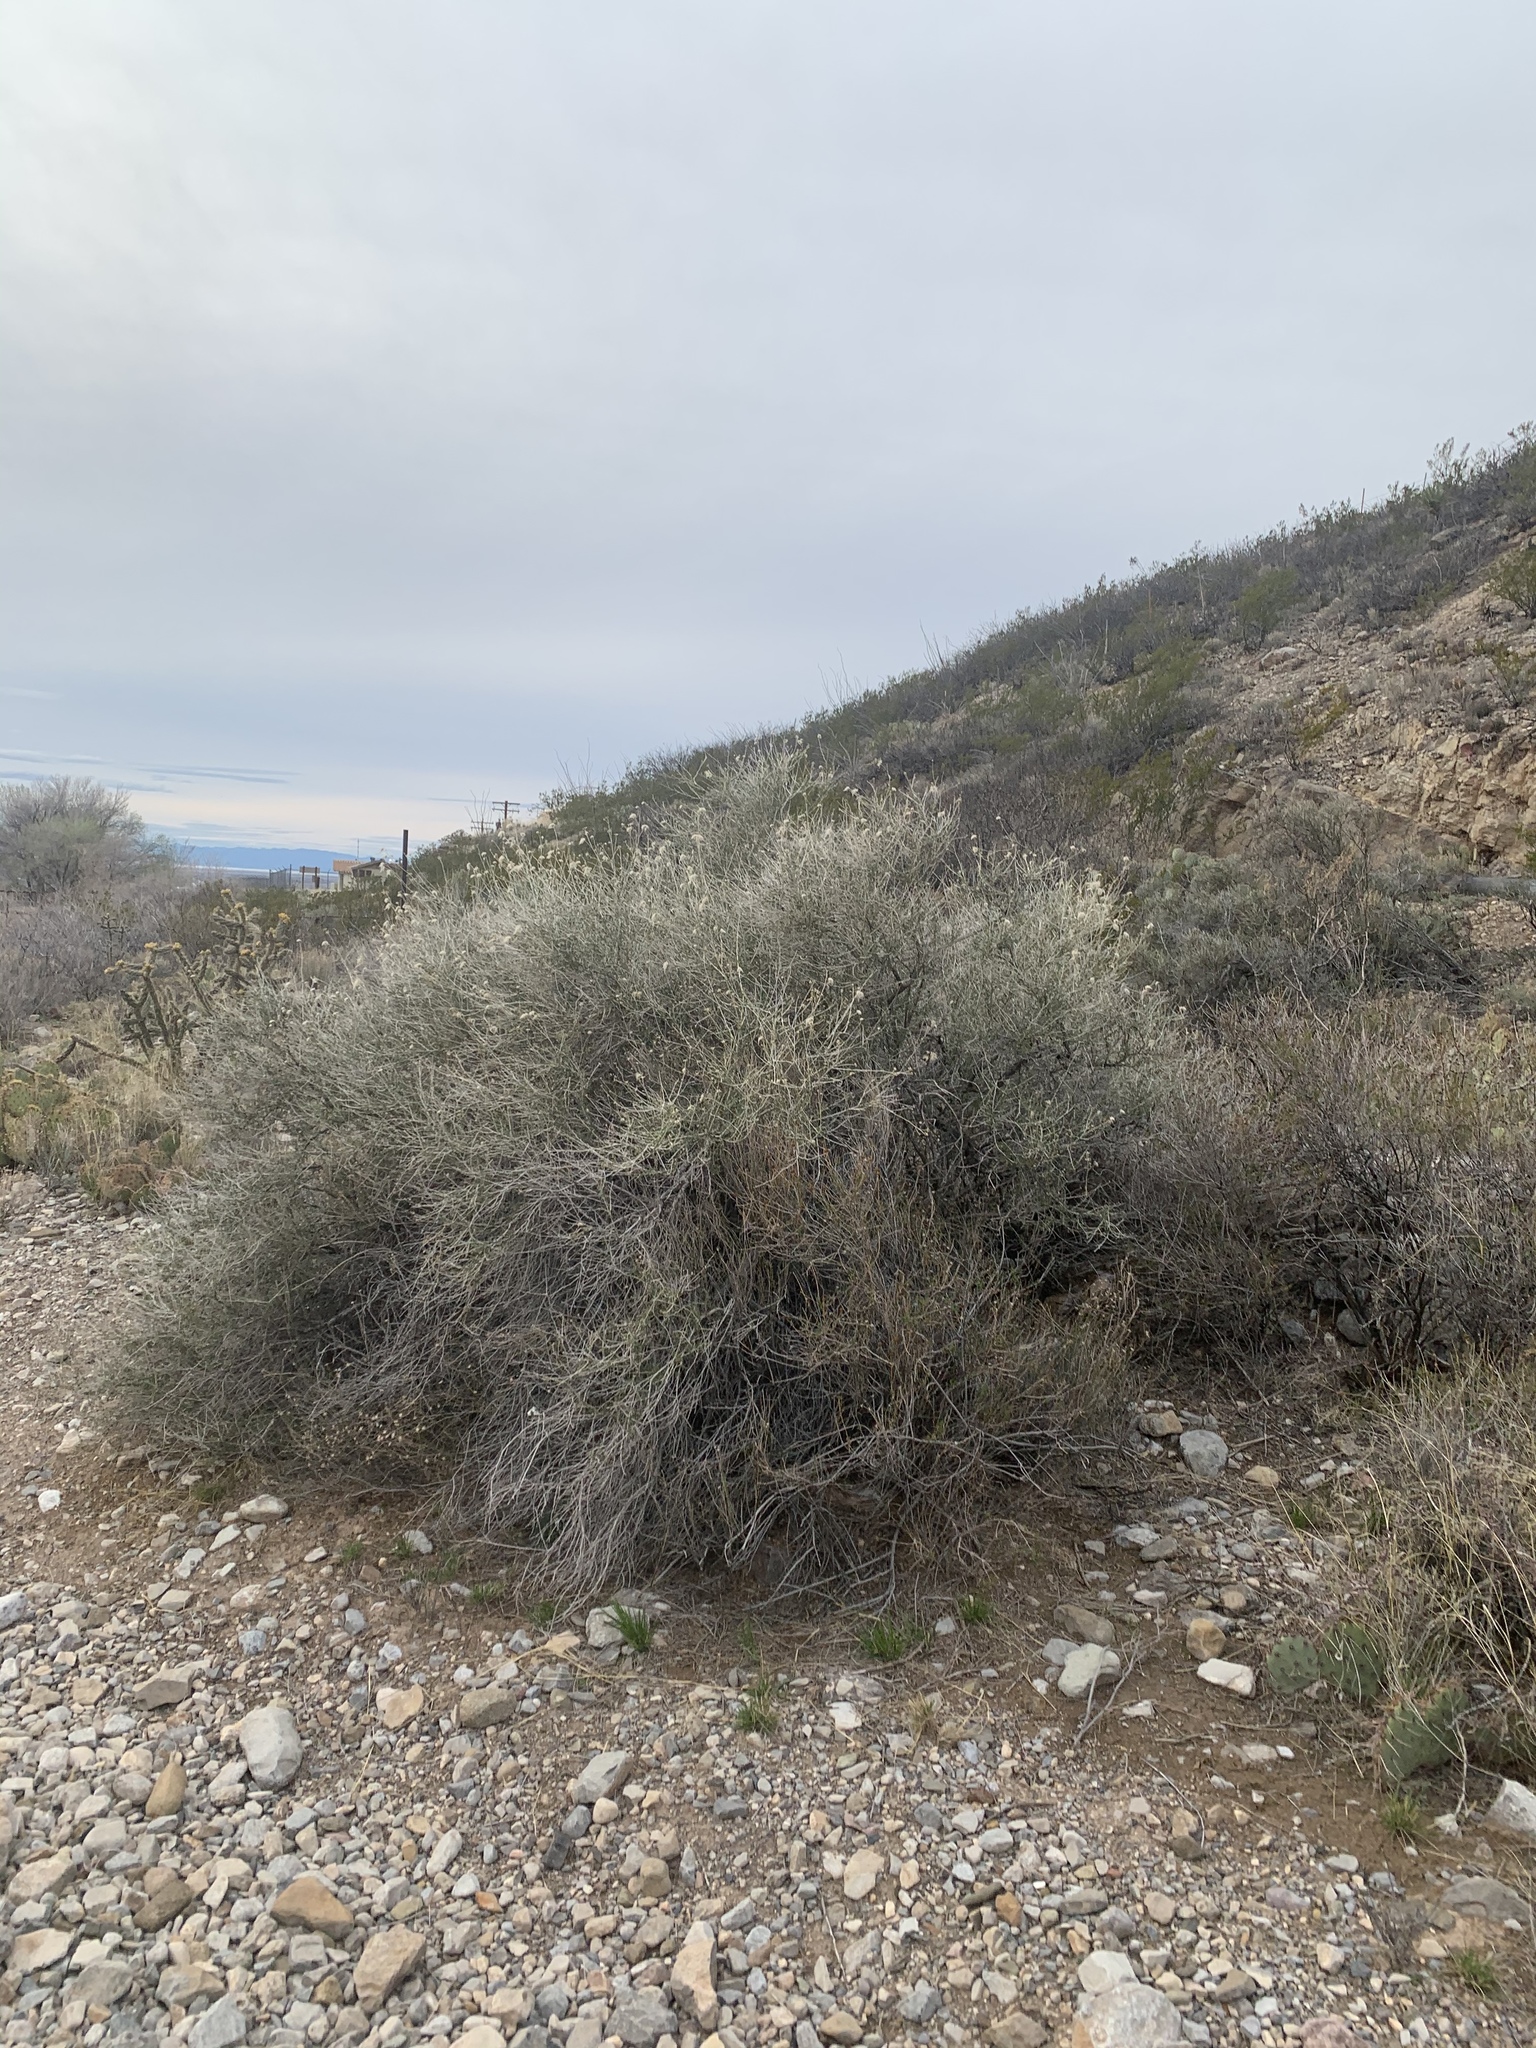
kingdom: Plantae
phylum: Tracheophyta
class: Magnoliopsida
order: Rosales
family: Rosaceae
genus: Fallugia
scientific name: Fallugia paradoxa
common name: Apache-plume
